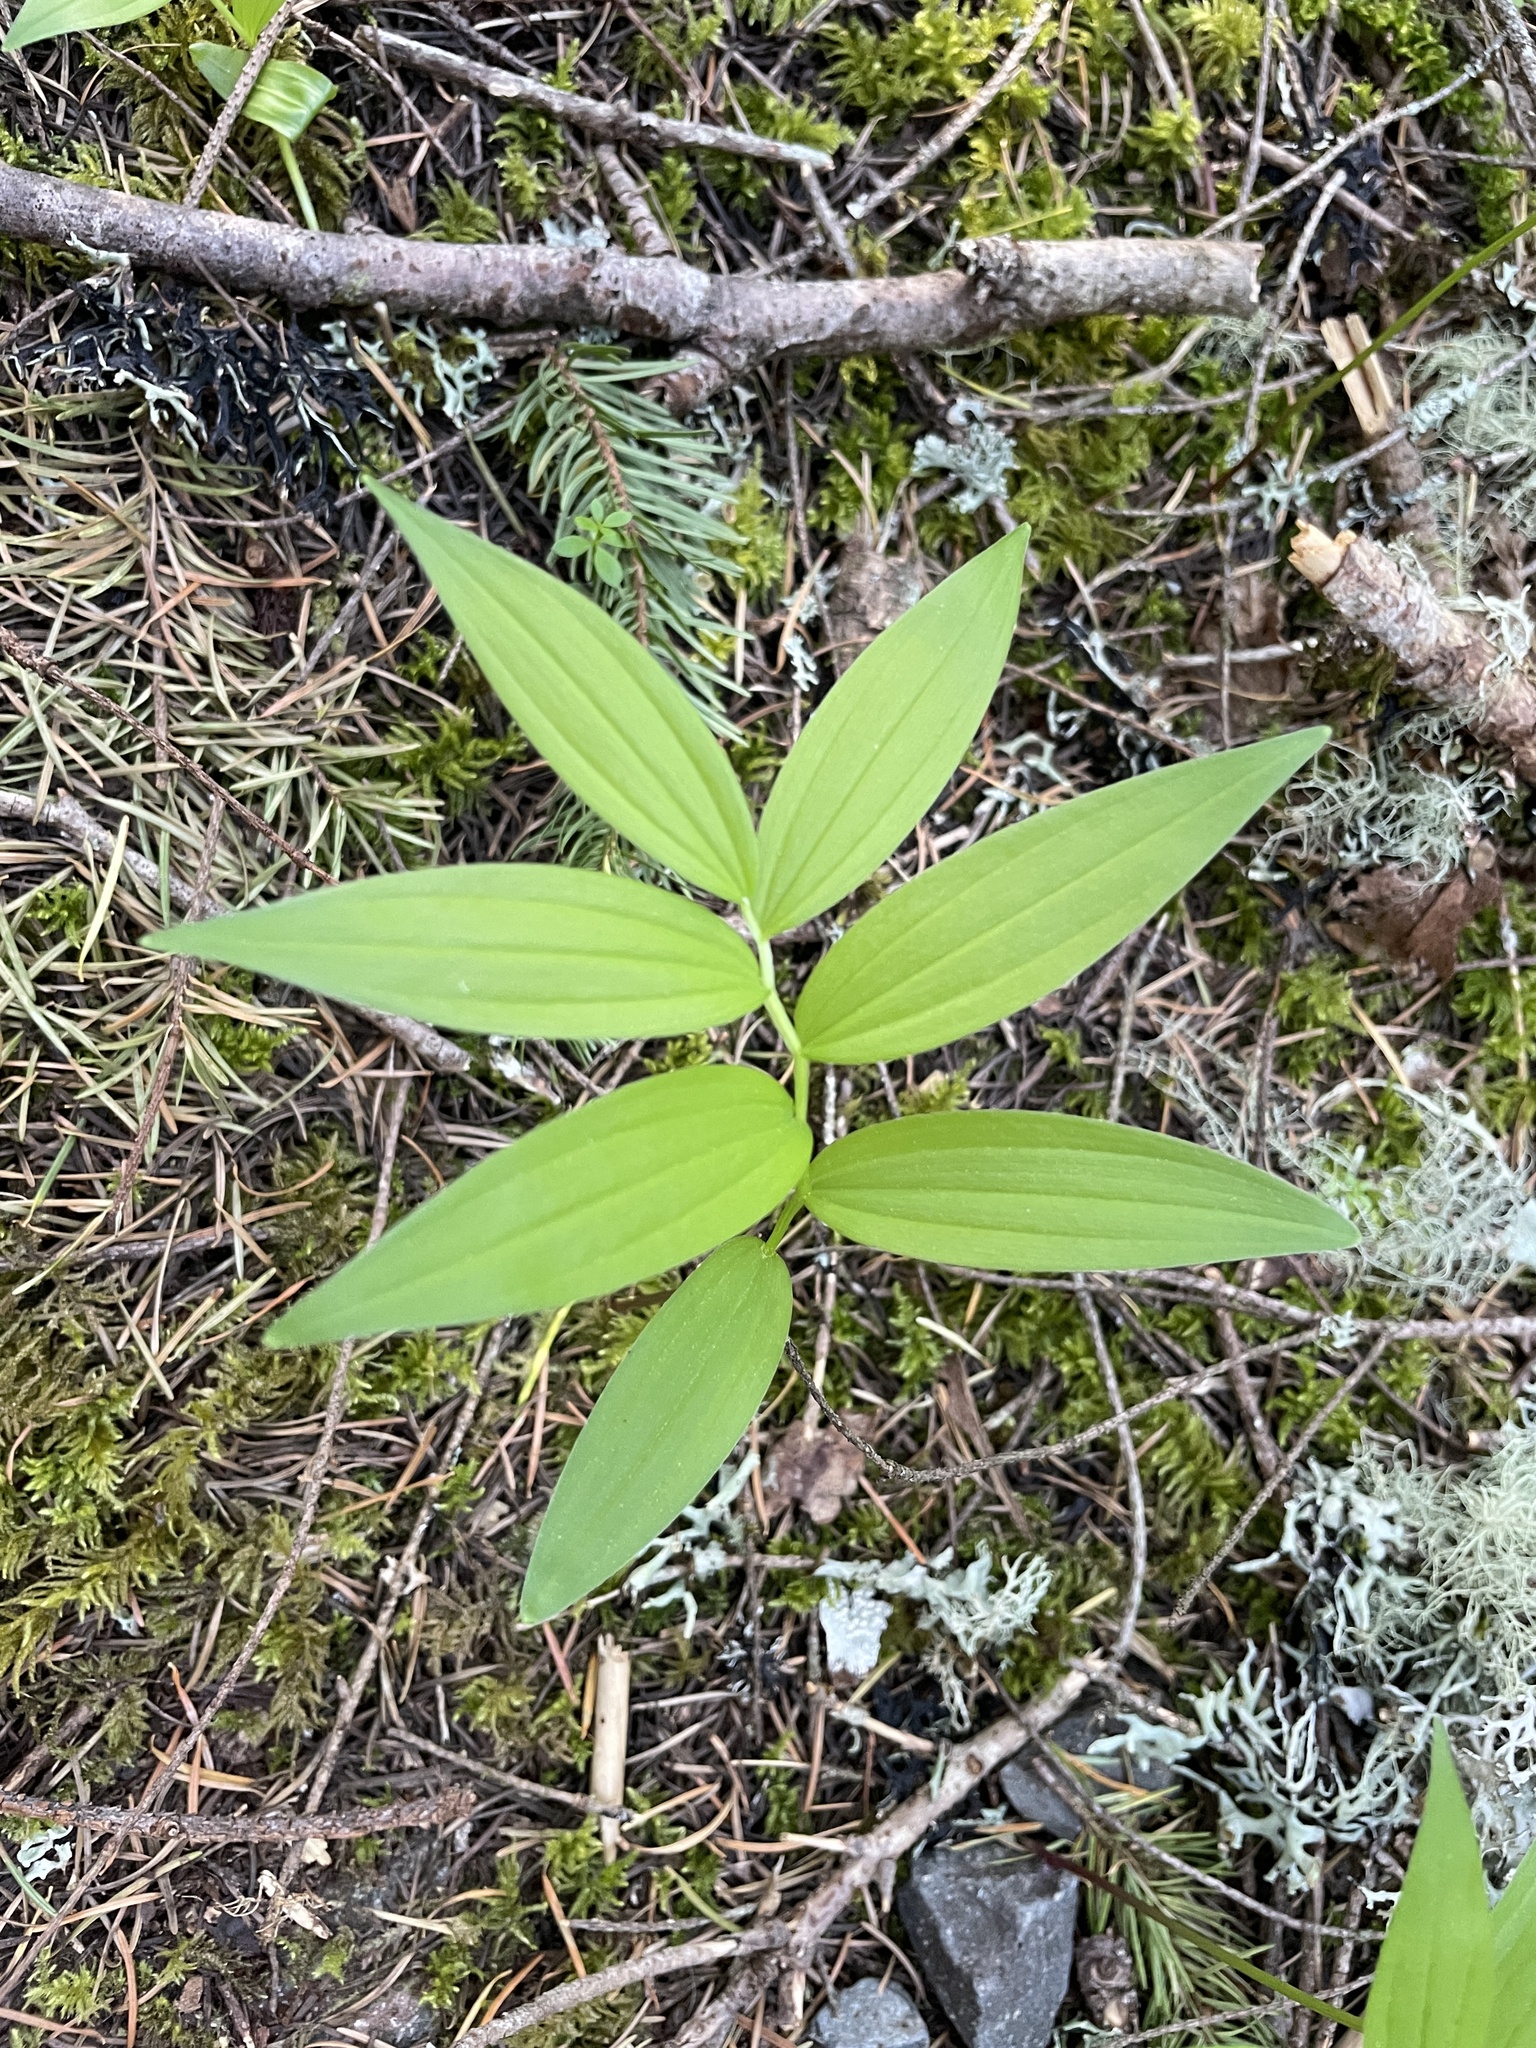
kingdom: Plantae
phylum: Tracheophyta
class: Liliopsida
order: Asparagales
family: Asparagaceae
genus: Maianthemum
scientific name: Maianthemum stellatum
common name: Little false solomon's seal
